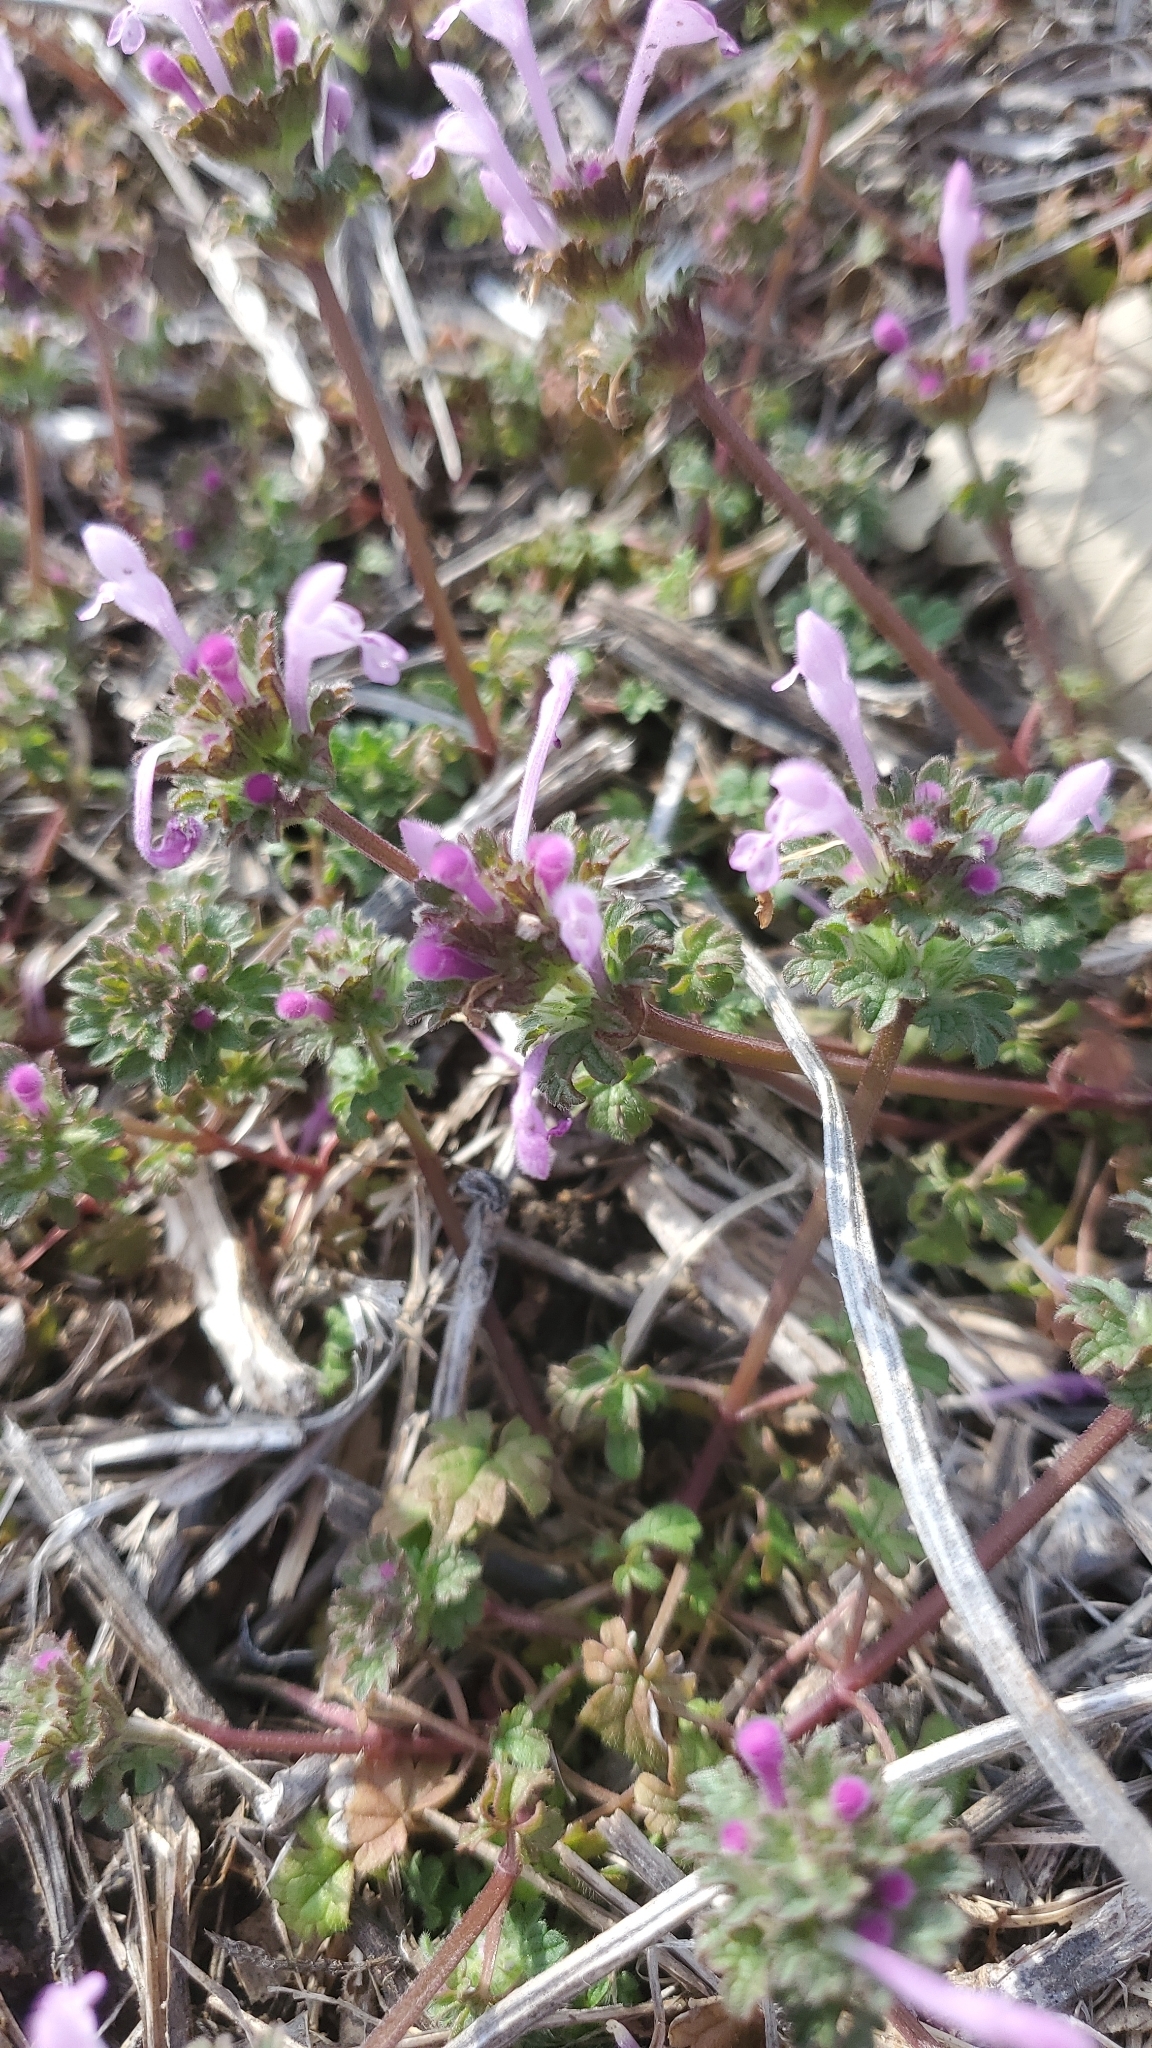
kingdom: Plantae
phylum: Tracheophyta
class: Magnoliopsida
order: Lamiales
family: Lamiaceae
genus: Lamium
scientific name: Lamium amplexicaule
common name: Henbit dead-nettle
